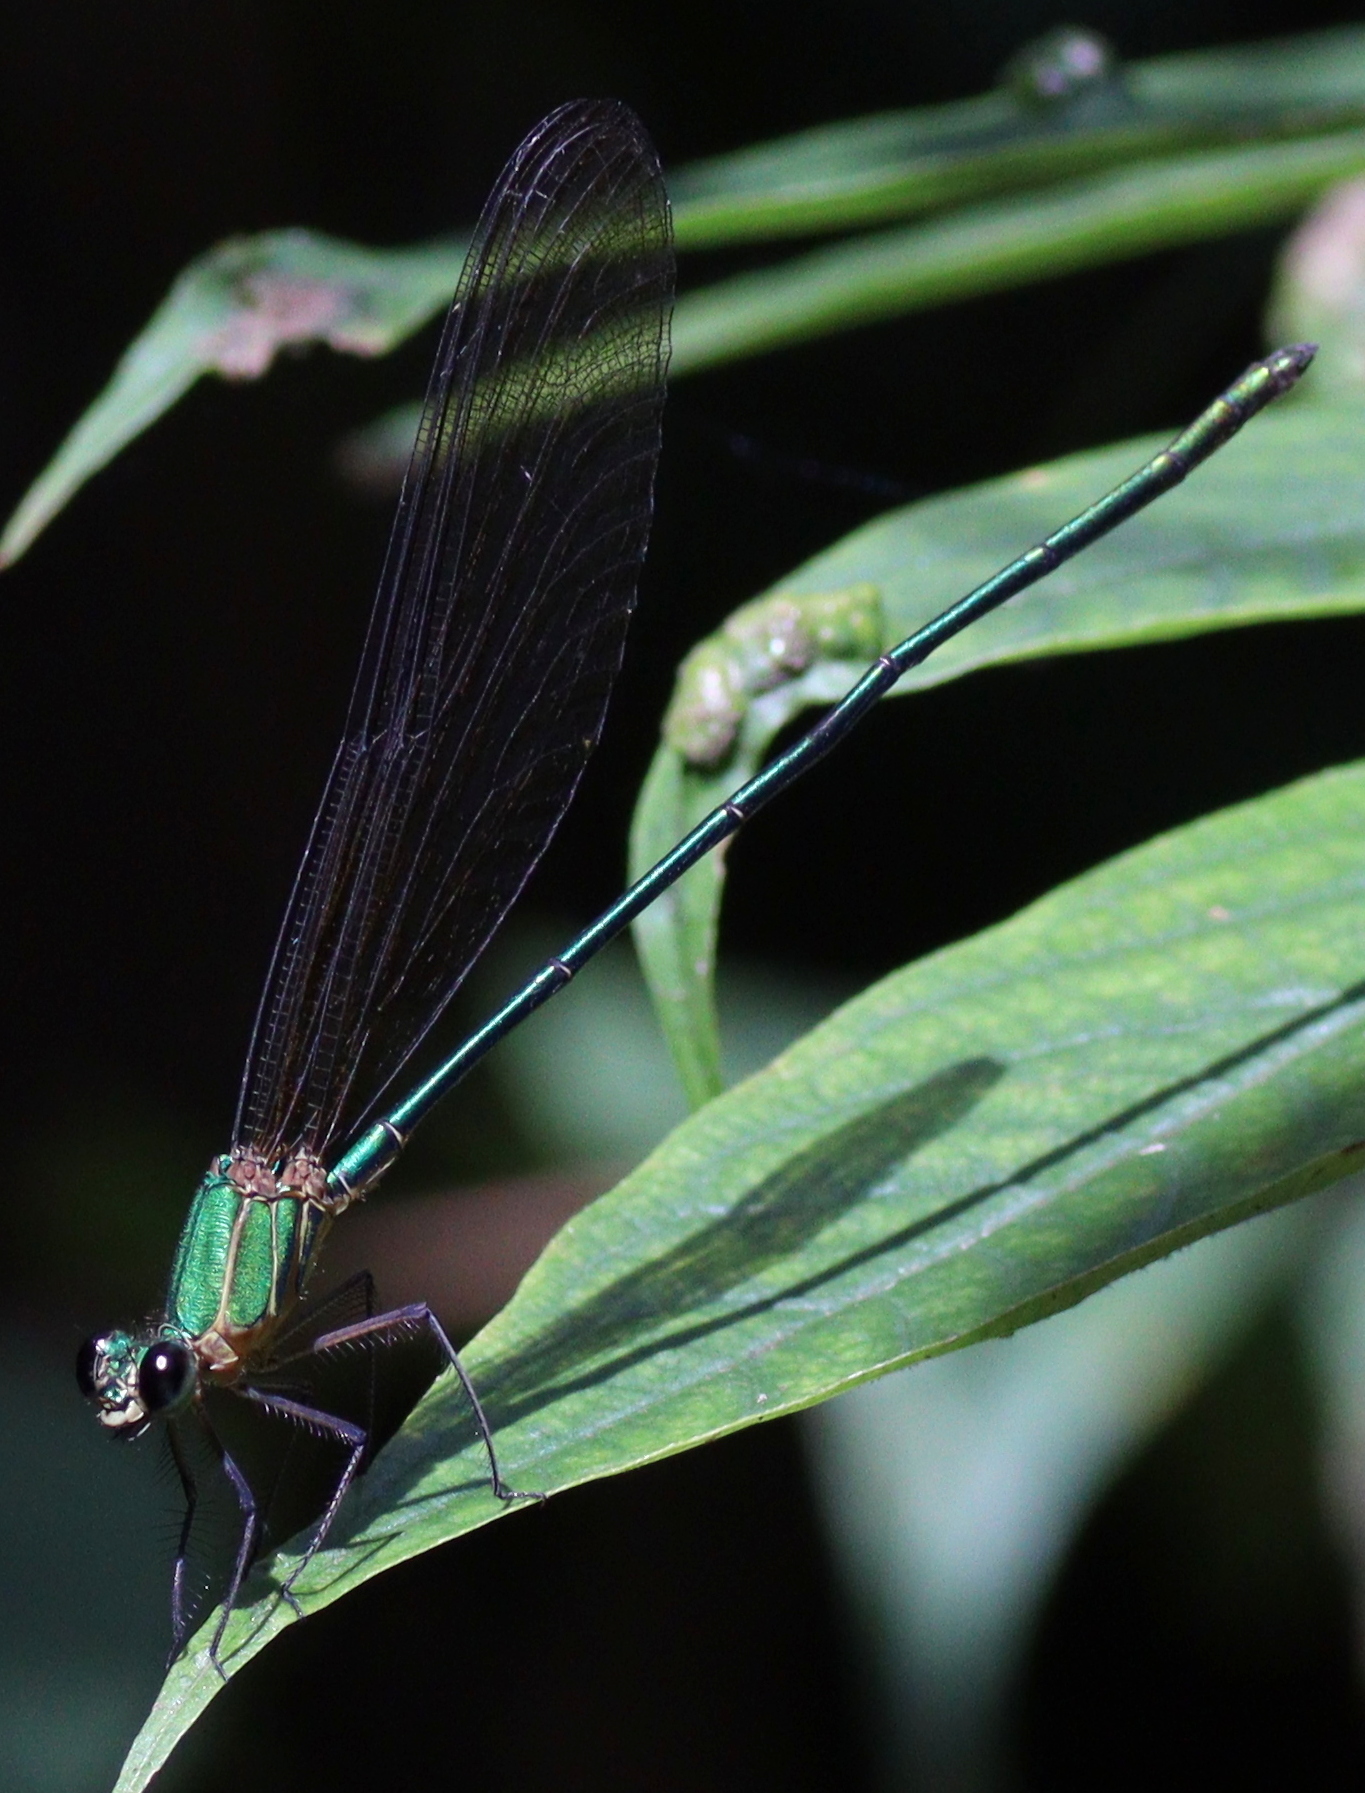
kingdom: Animalia
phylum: Arthropoda
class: Insecta
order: Odonata
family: Calopterygidae
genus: Vestalis
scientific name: Vestalis gracilis
